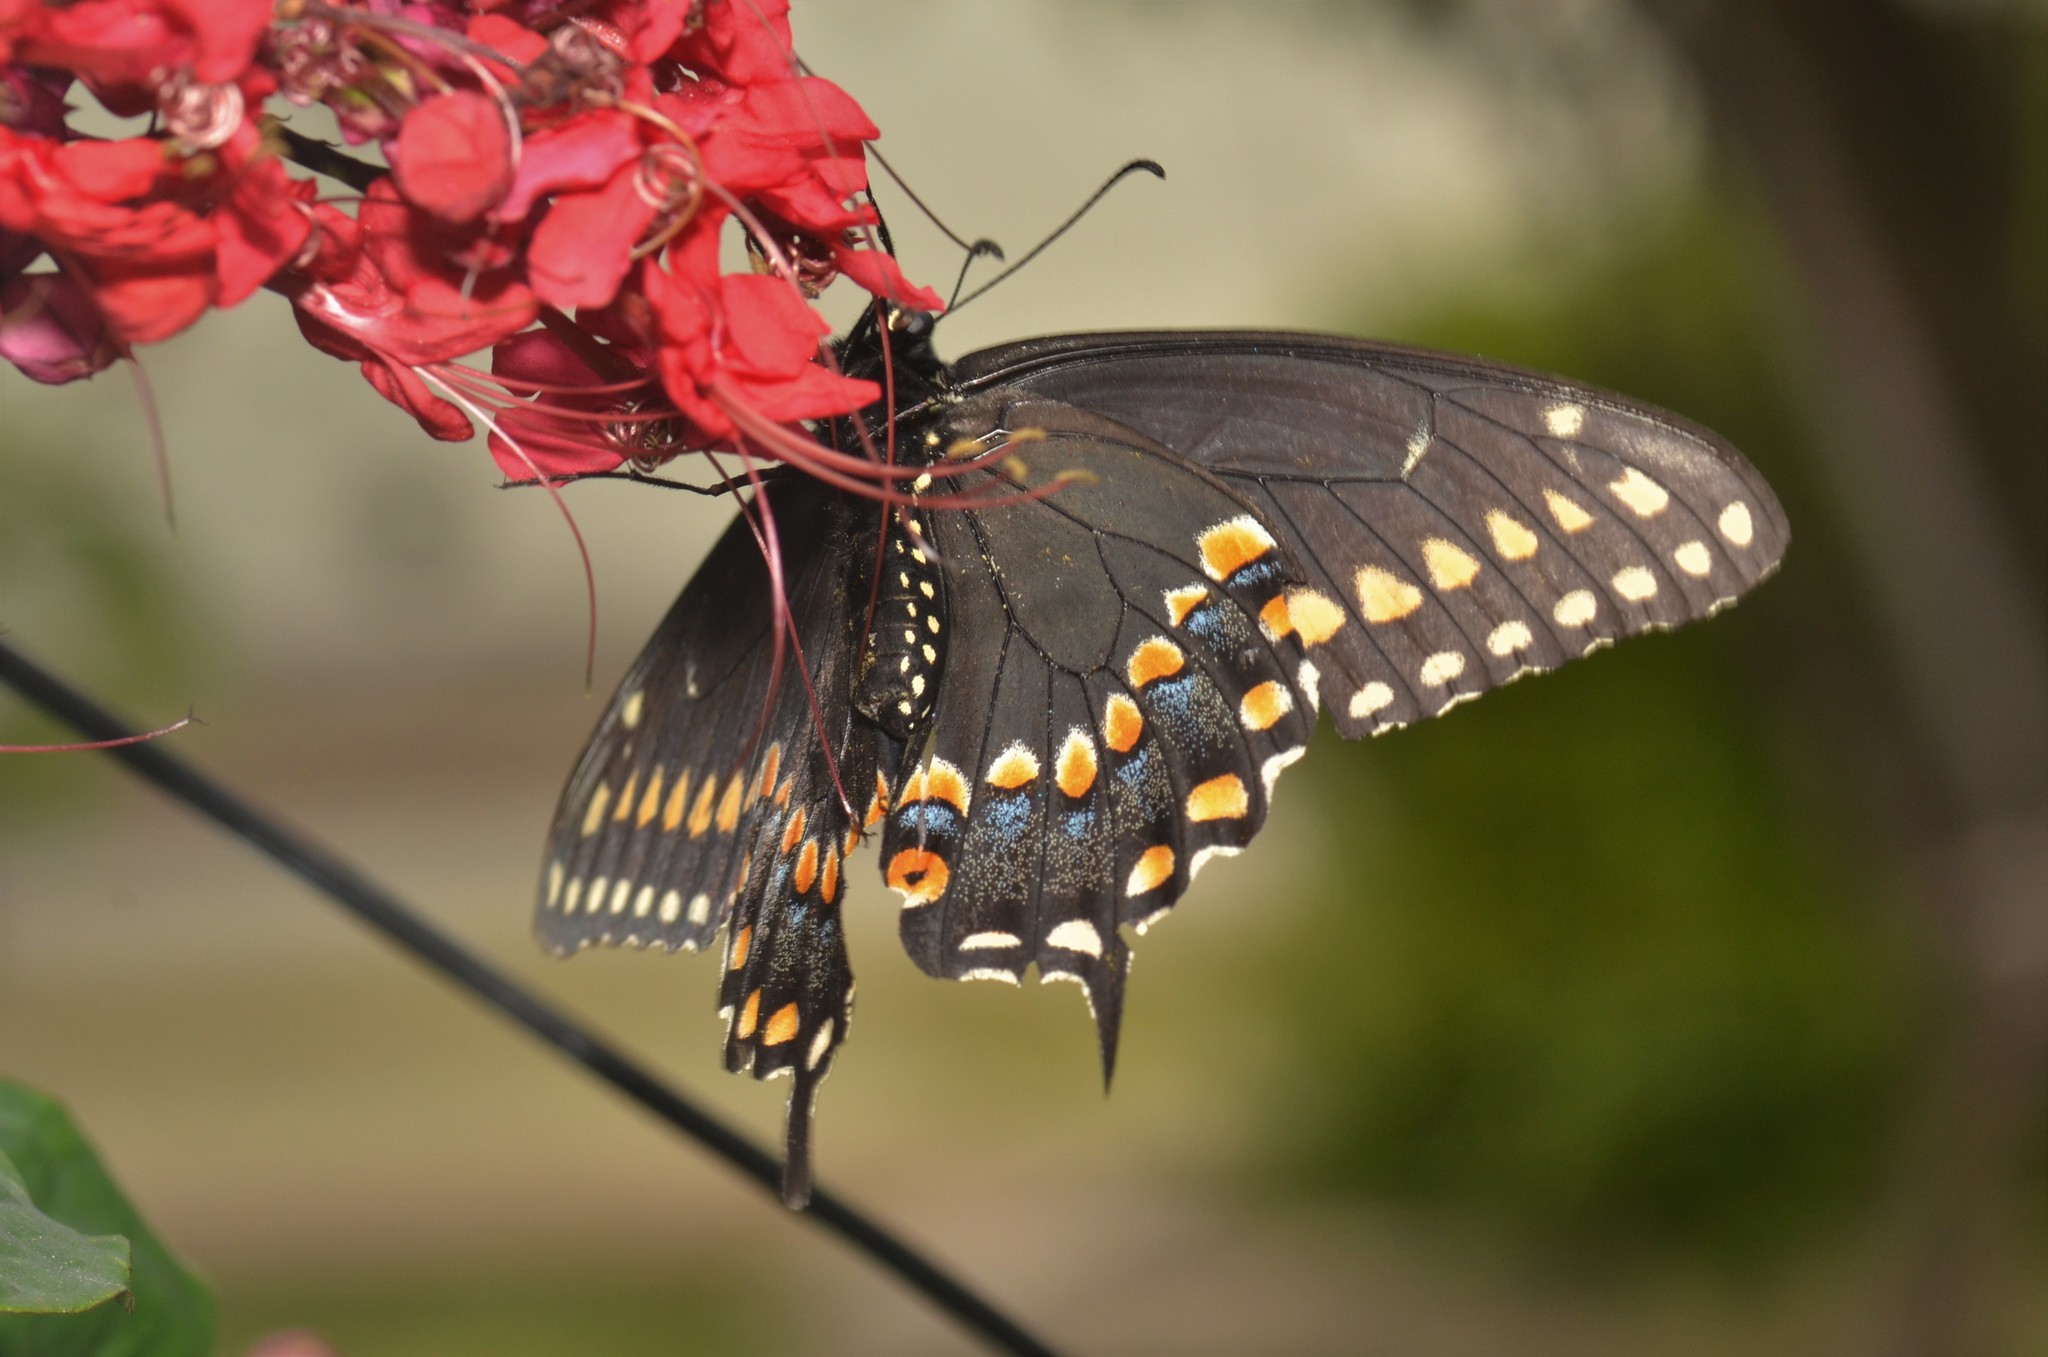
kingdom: Animalia
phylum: Arthropoda
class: Insecta
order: Lepidoptera
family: Papilionidae
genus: Papilio
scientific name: Papilio polyxenes
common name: Black swallowtail
